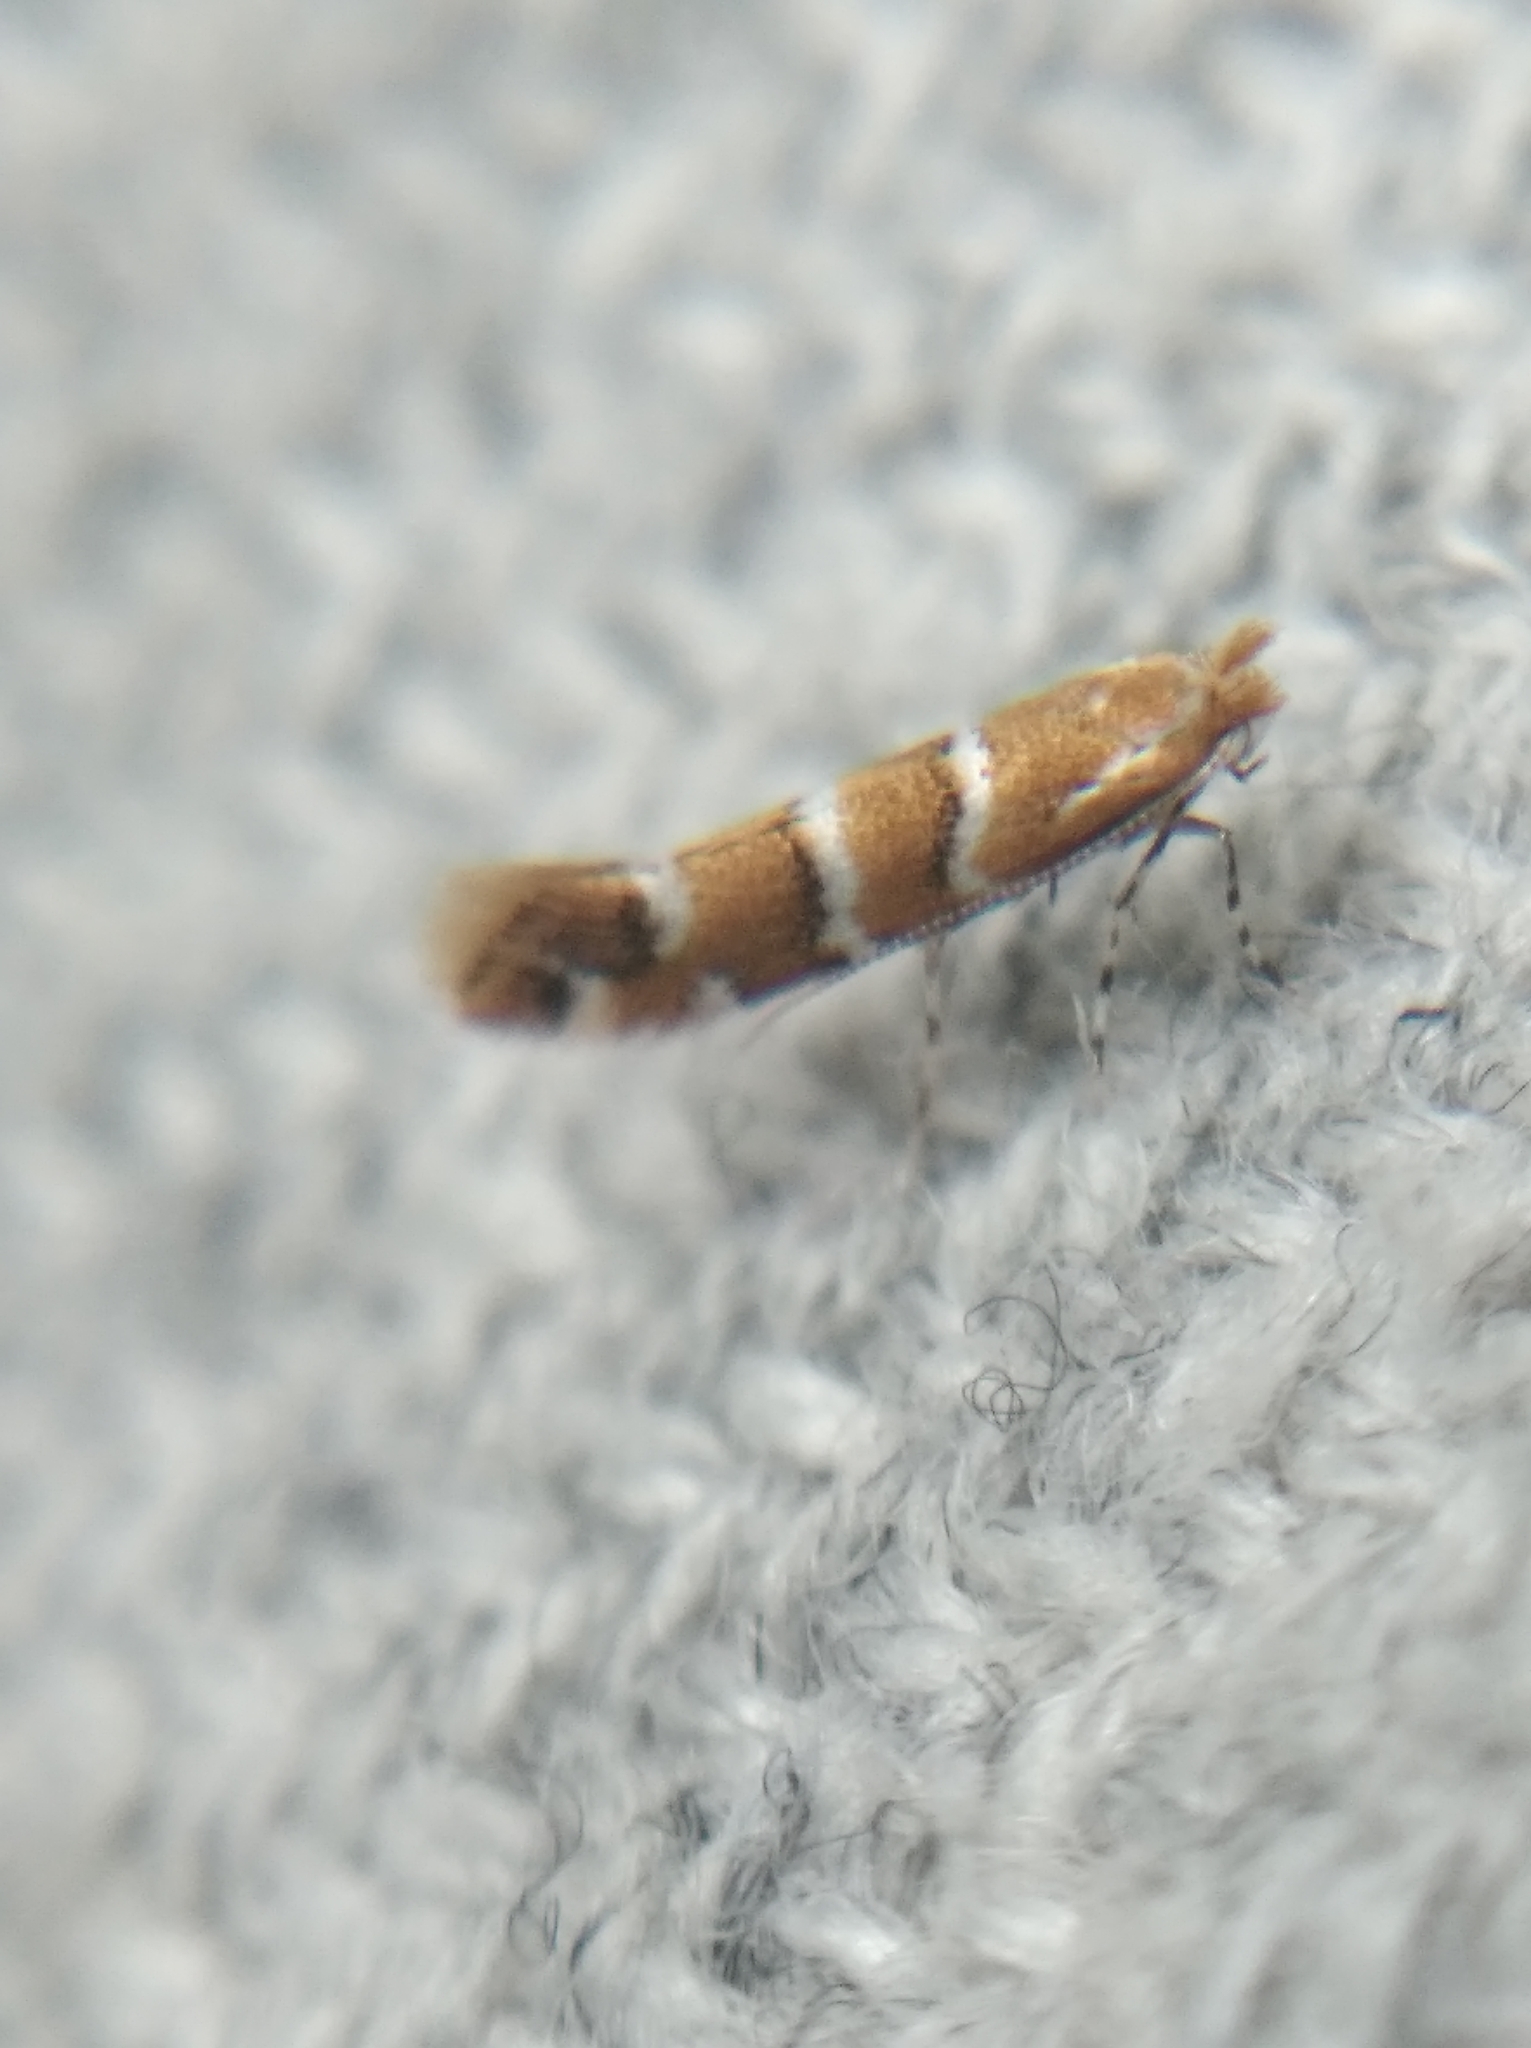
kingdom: Animalia
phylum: Arthropoda
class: Insecta
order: Lepidoptera
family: Gracillariidae
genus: Cameraria
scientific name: Cameraria ohridella
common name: Horse-chestnut leaf-miner
